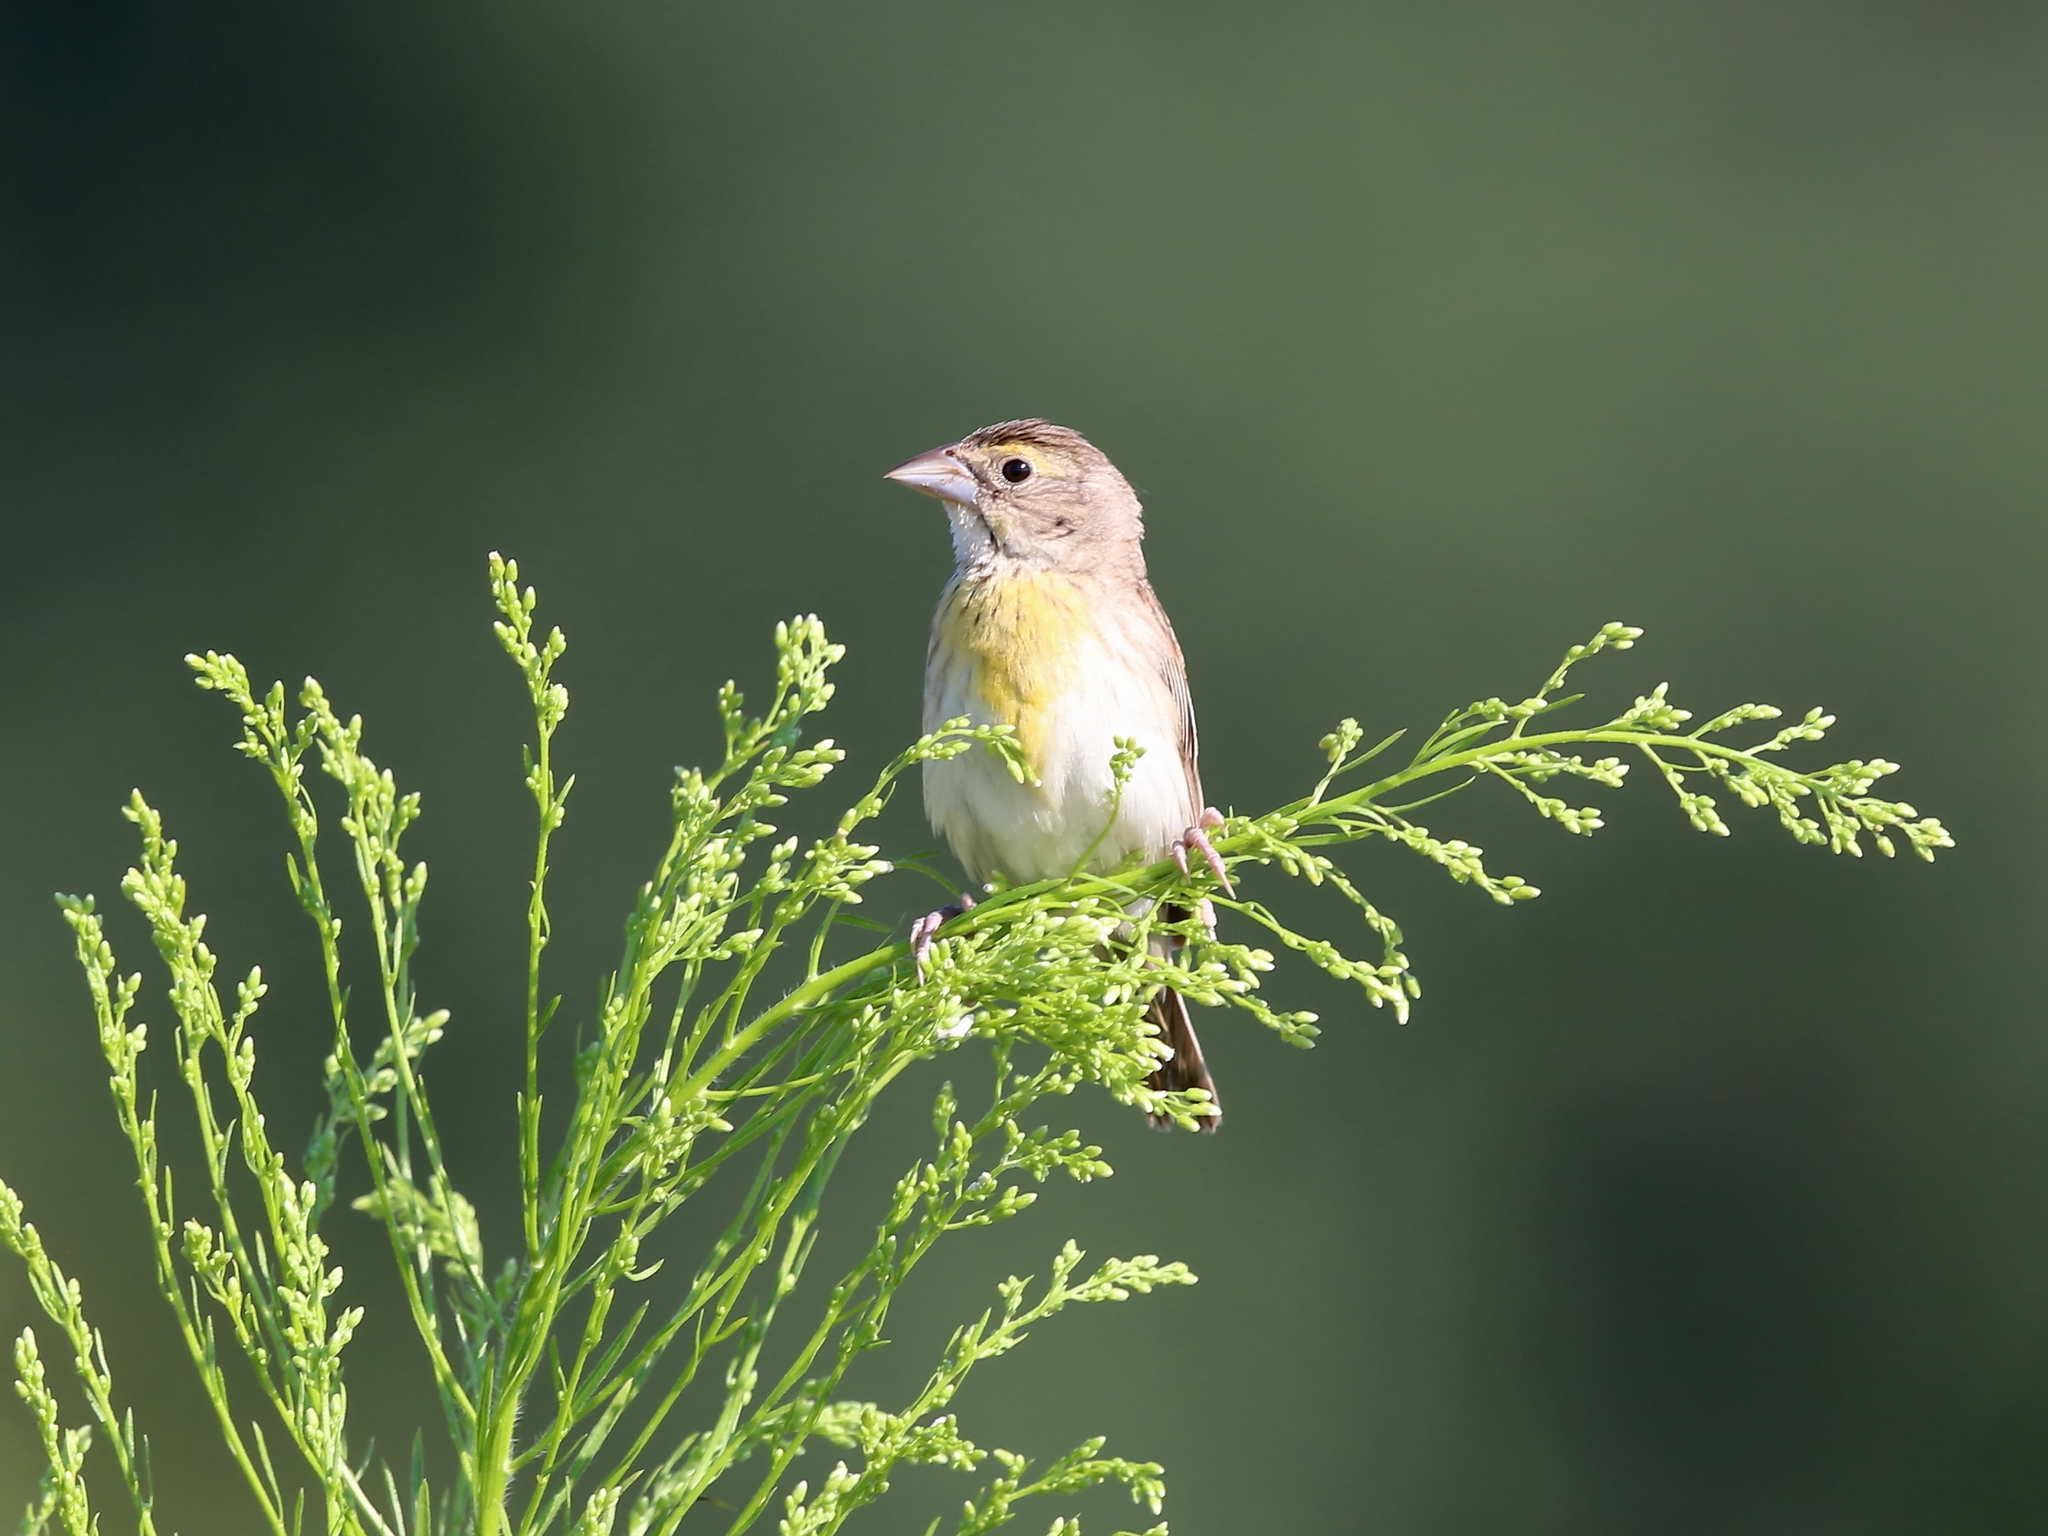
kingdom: Animalia
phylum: Chordata
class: Aves
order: Passeriformes
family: Cardinalidae
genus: Spiza
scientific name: Spiza americana
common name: Dickcissel
